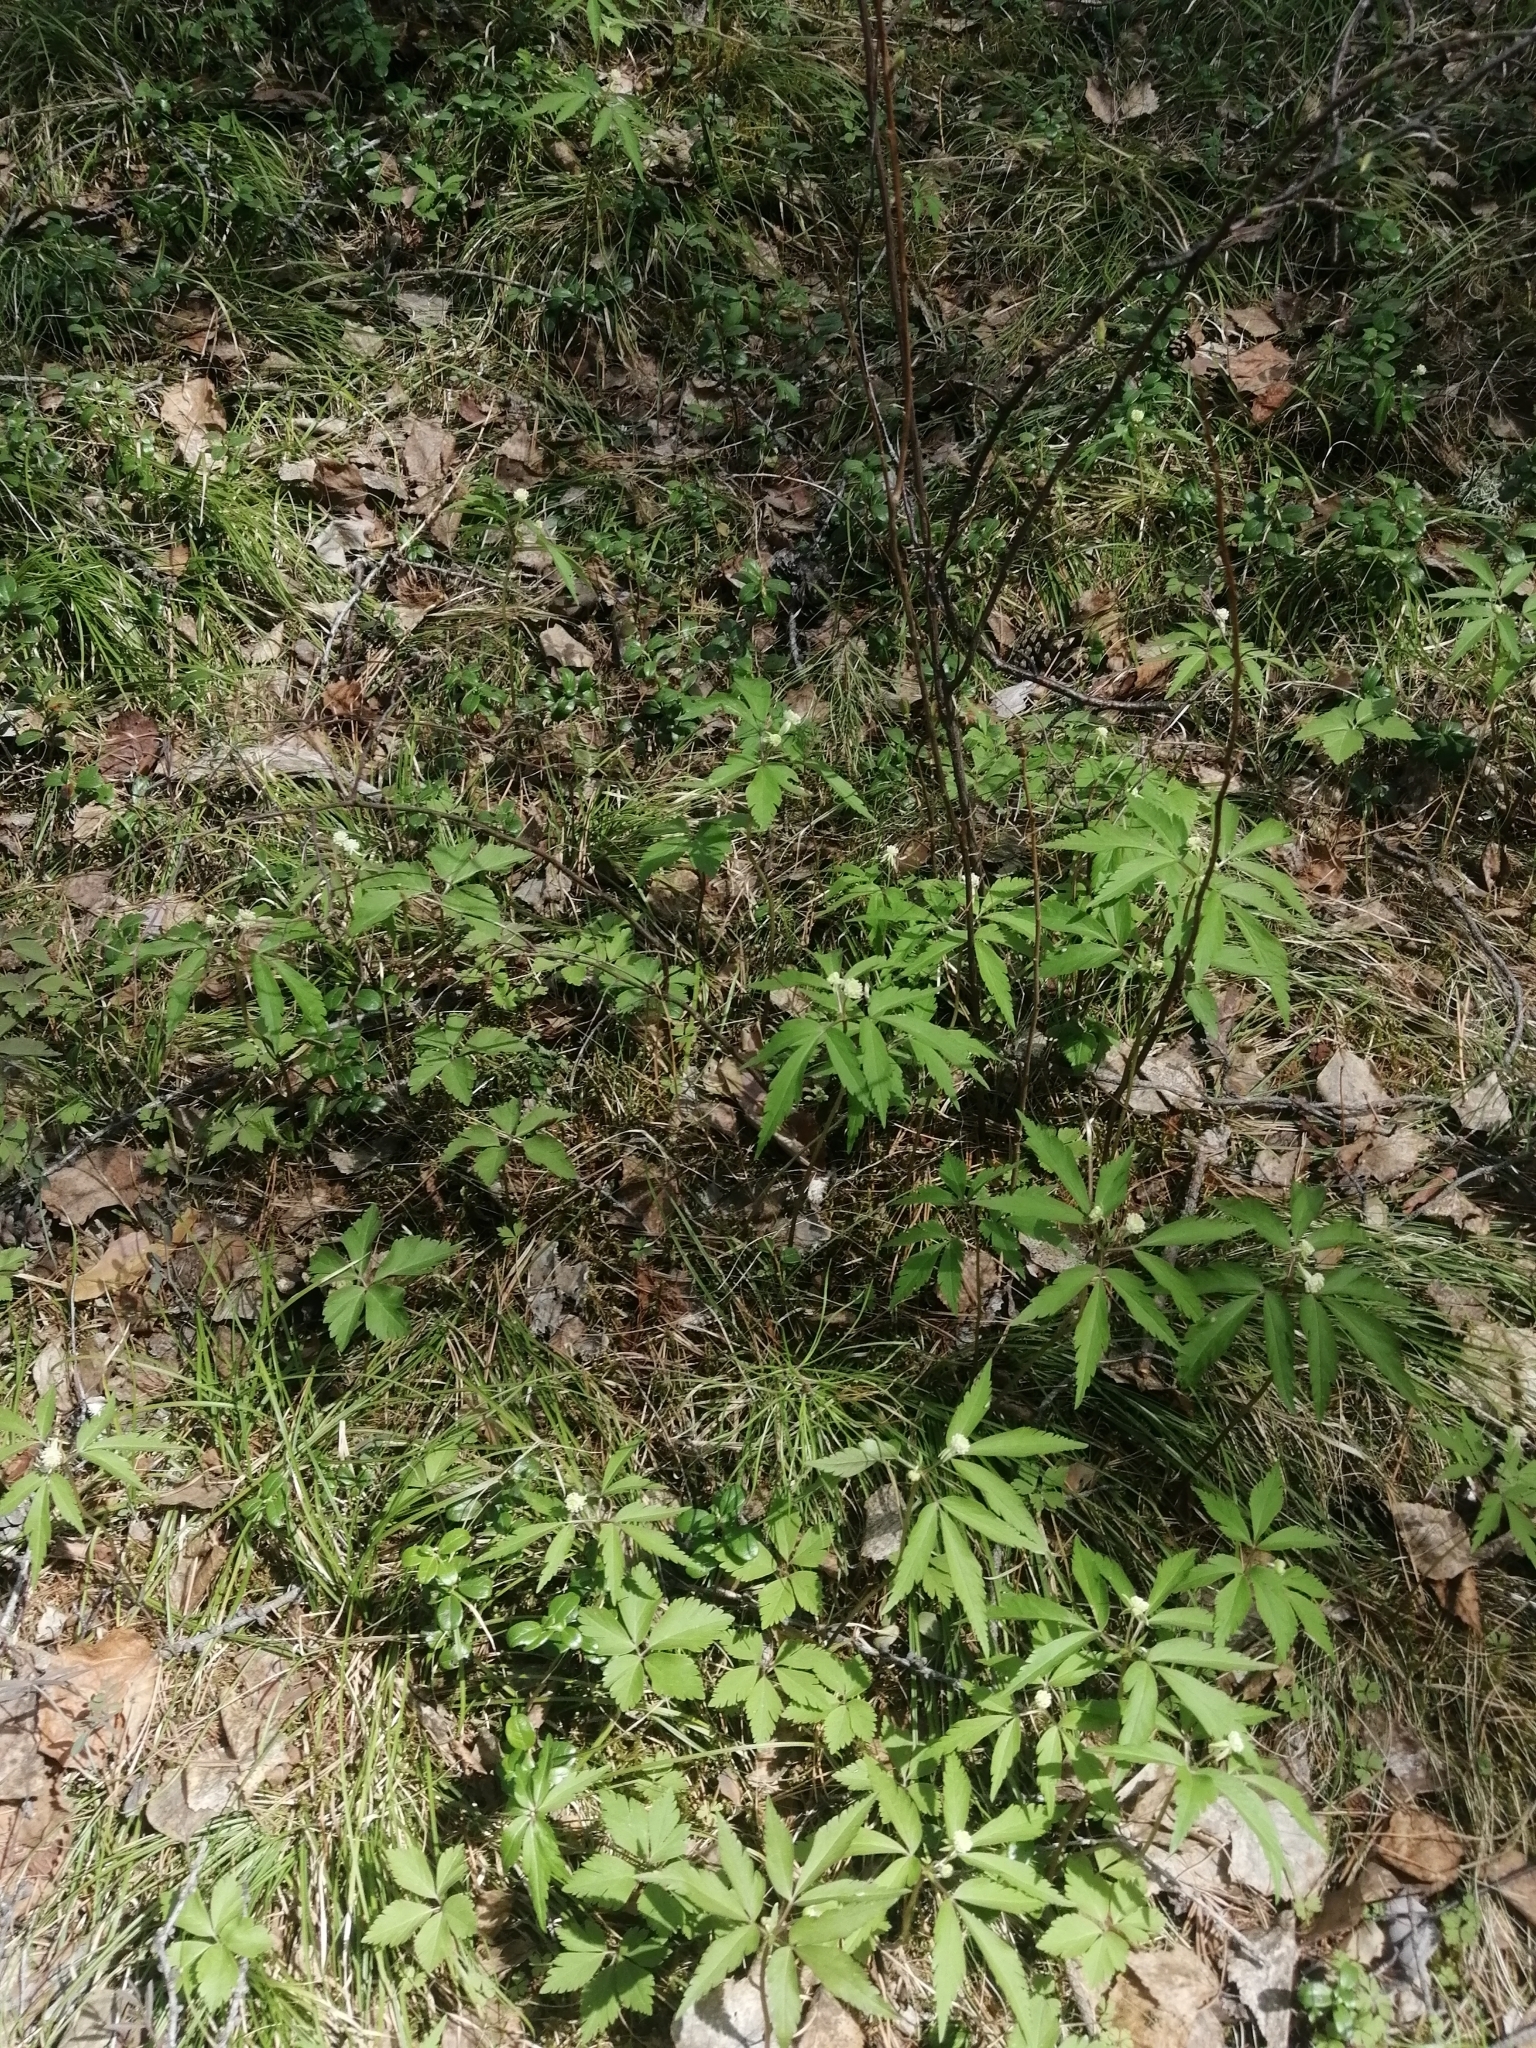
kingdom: Plantae
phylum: Tracheophyta
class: Magnoliopsida
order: Ranunculales
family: Ranunculaceae
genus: Anemone
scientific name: Anemone reflexa
